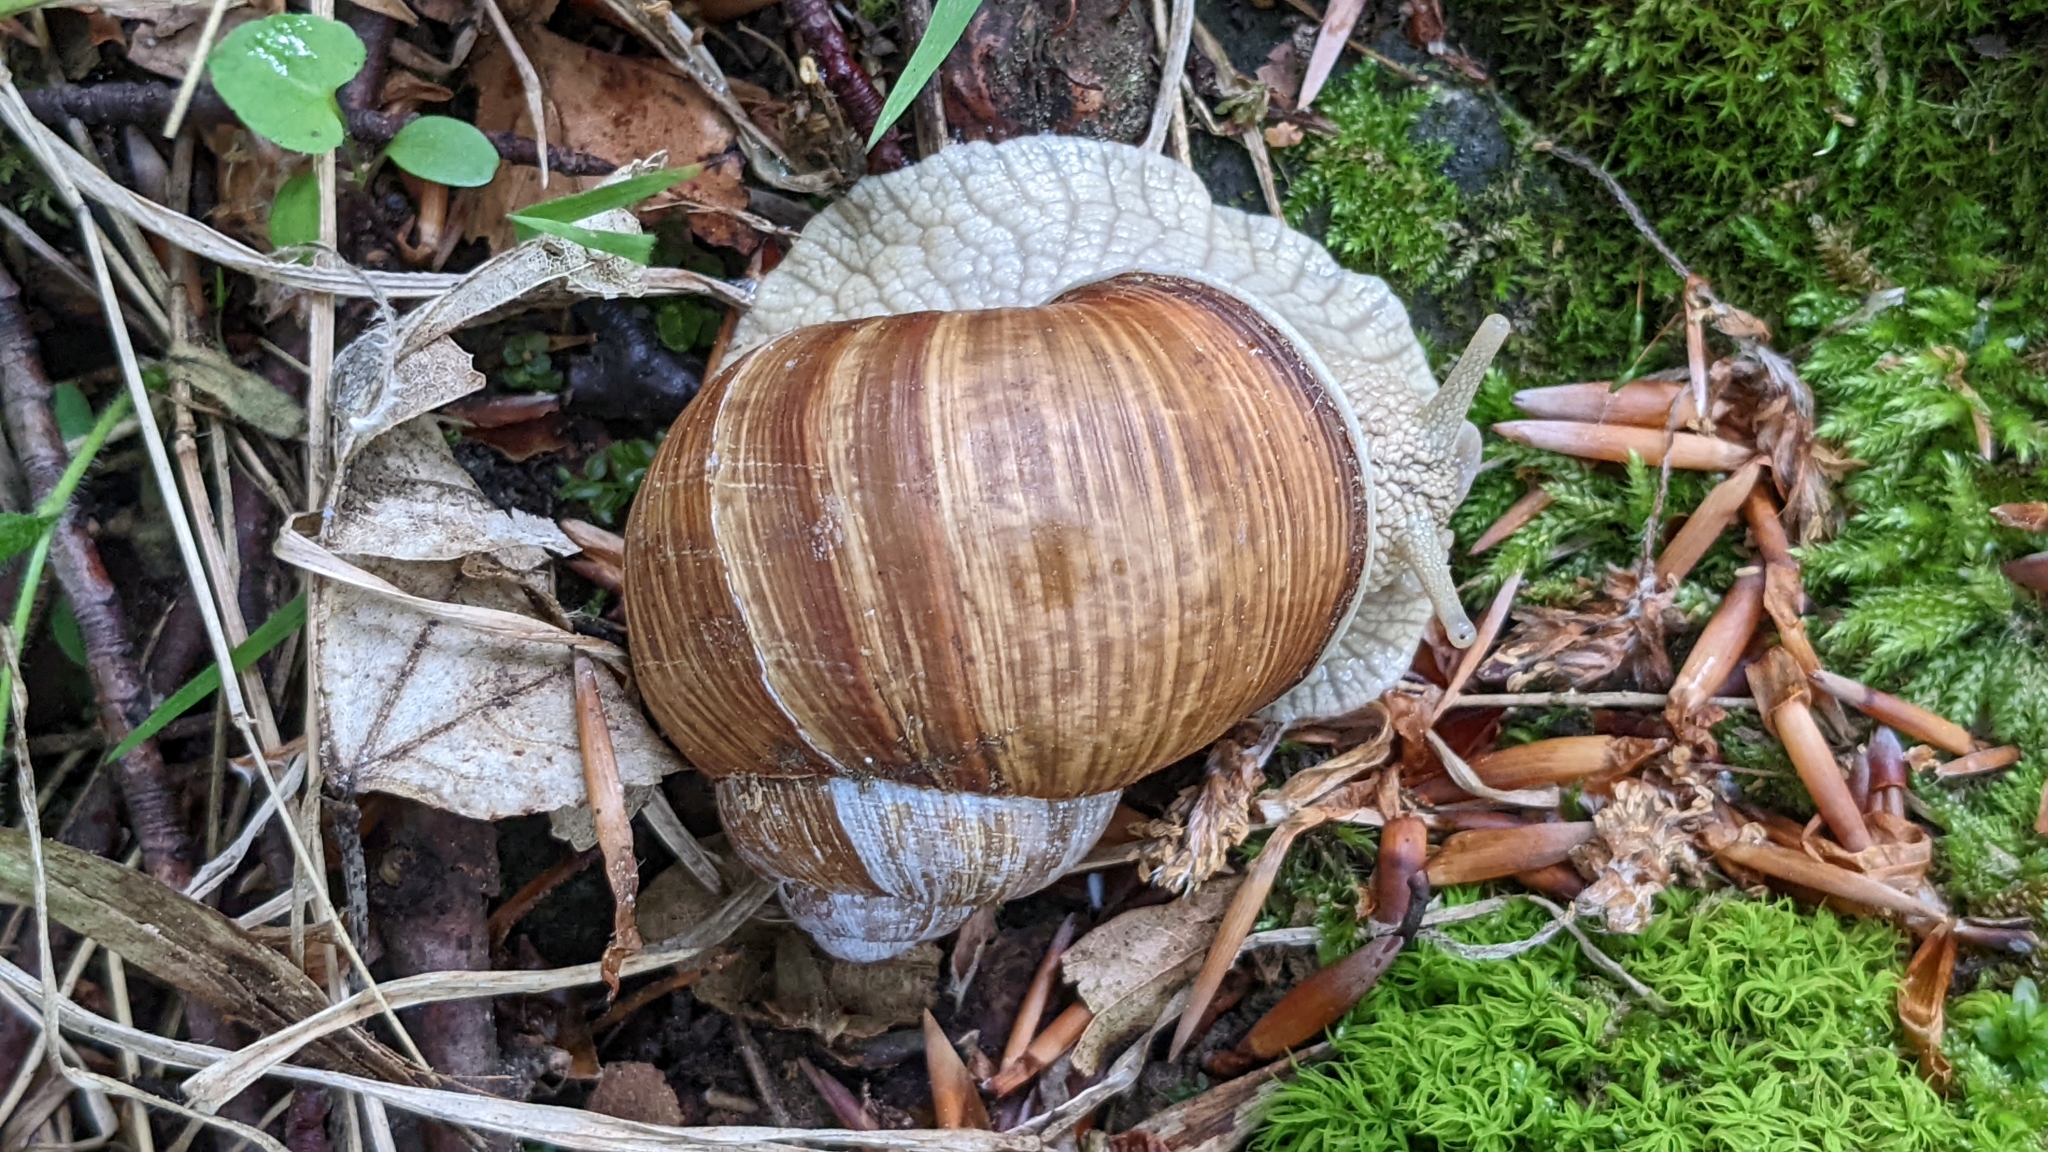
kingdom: Animalia
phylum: Mollusca
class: Gastropoda
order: Stylommatophora
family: Helicidae
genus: Helix
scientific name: Helix pomatia
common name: Roman snail
